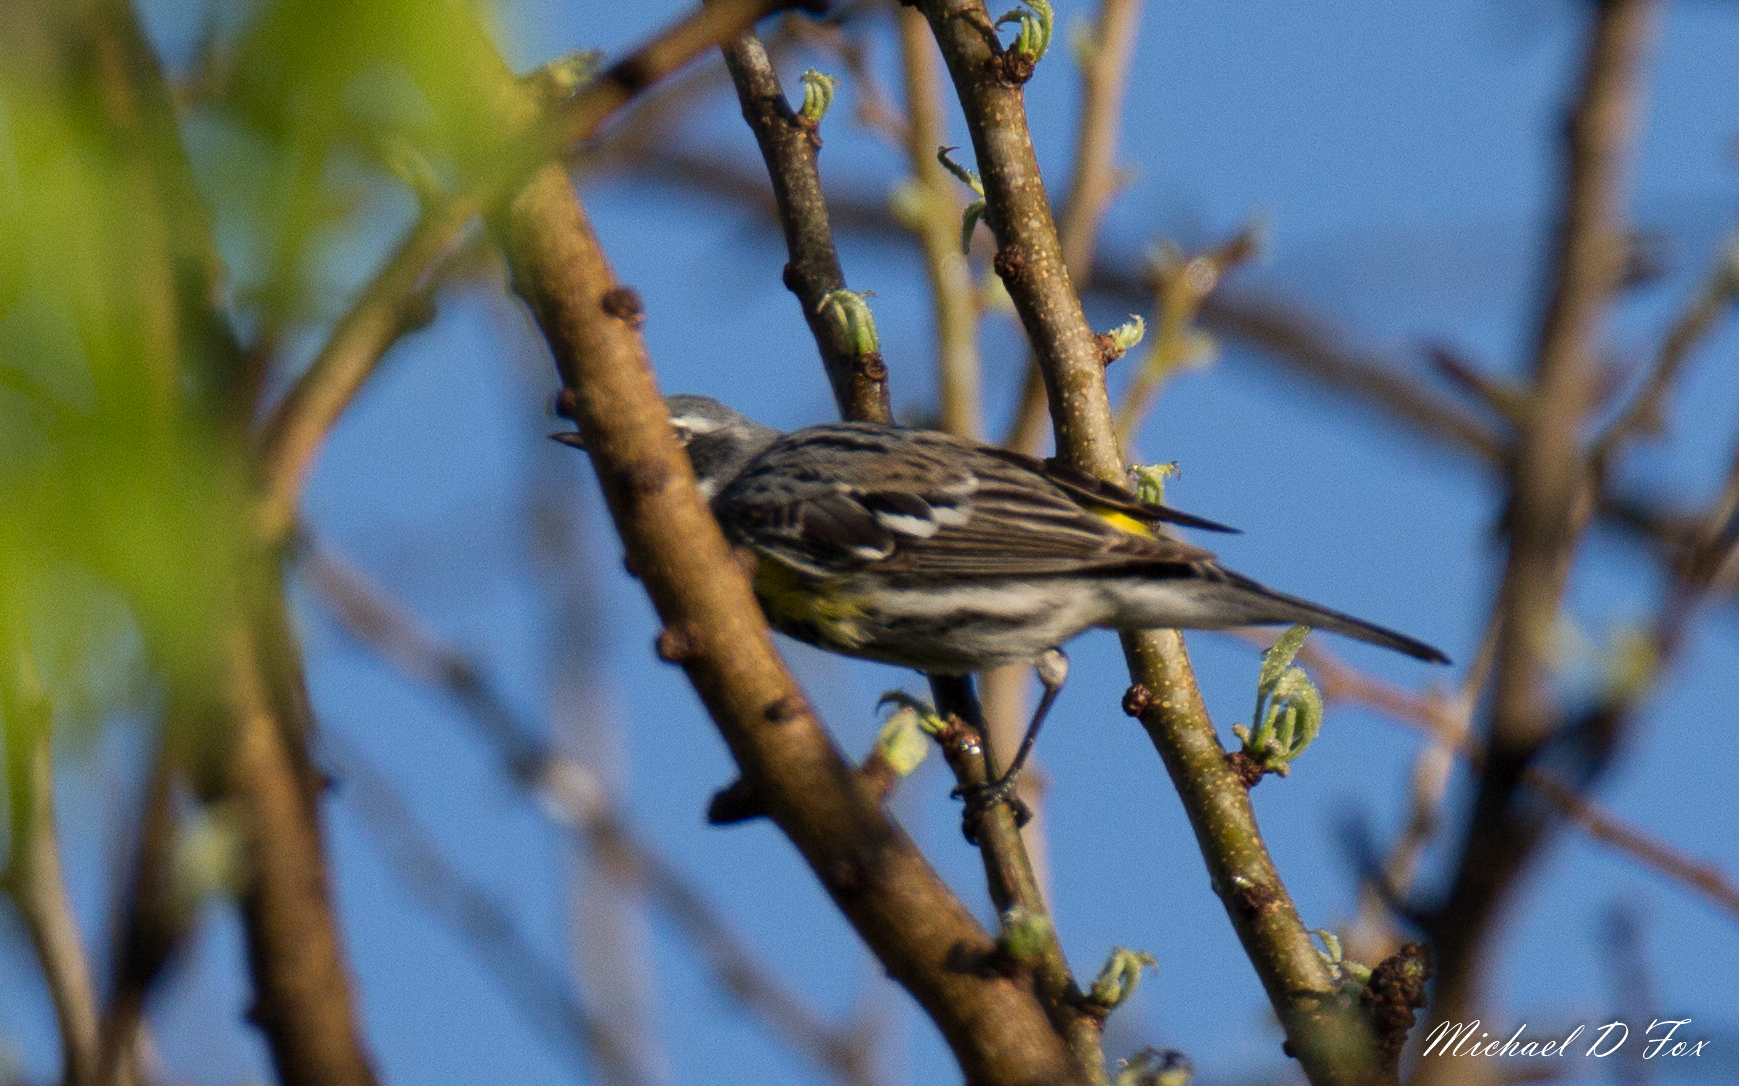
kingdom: Animalia
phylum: Chordata
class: Aves
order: Passeriformes
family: Parulidae
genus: Setophaga
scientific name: Setophaga coronata
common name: Myrtle warbler
